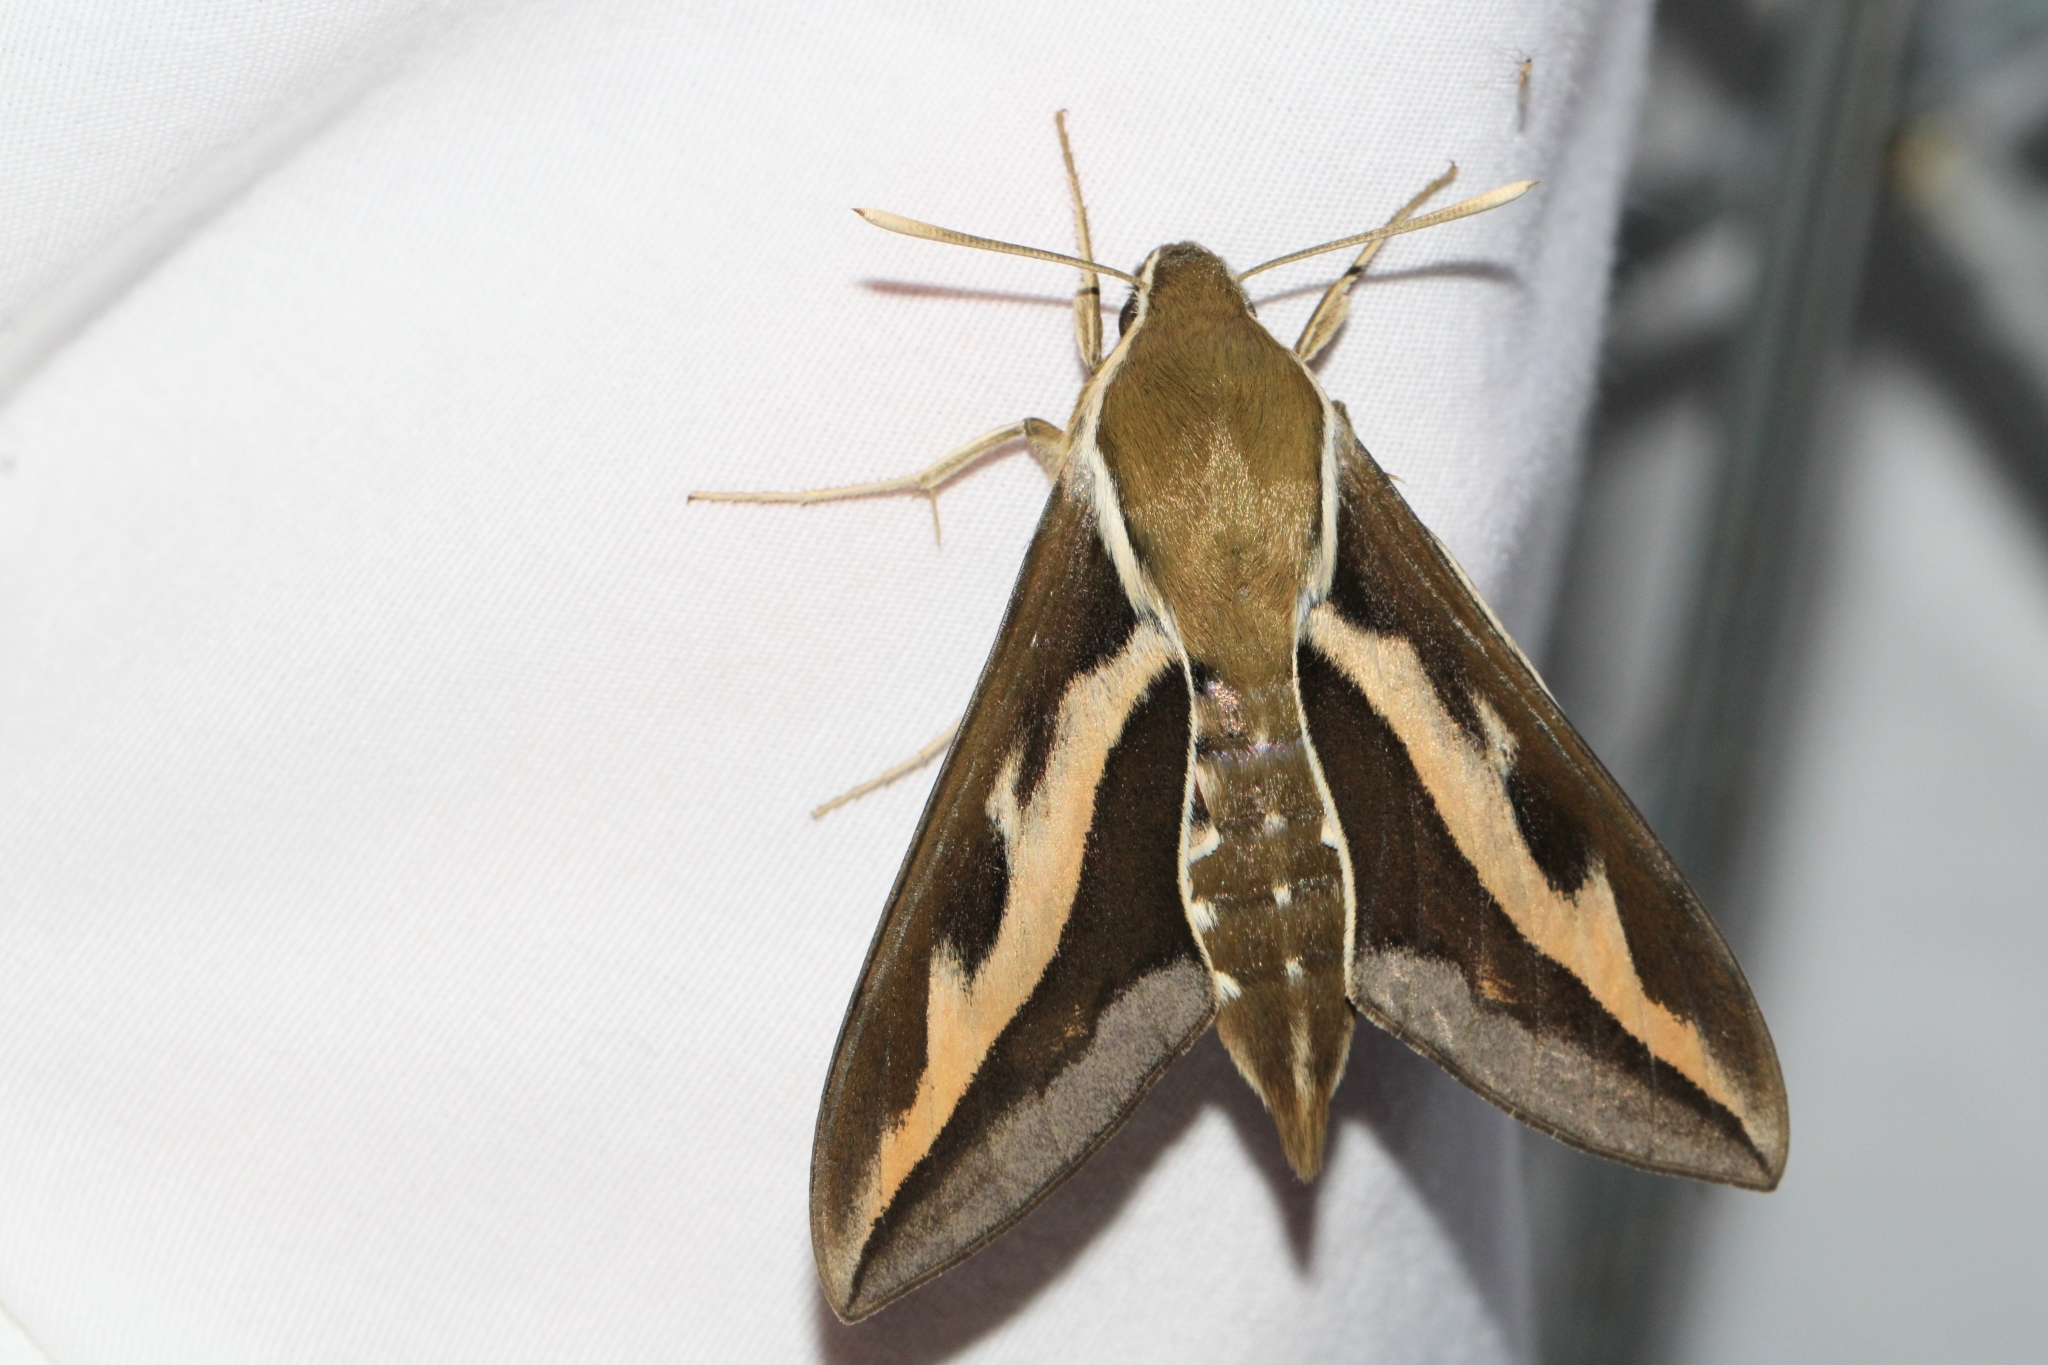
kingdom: Animalia
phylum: Arthropoda
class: Insecta
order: Lepidoptera
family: Sphingidae
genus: Hyles
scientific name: Hyles gallii
